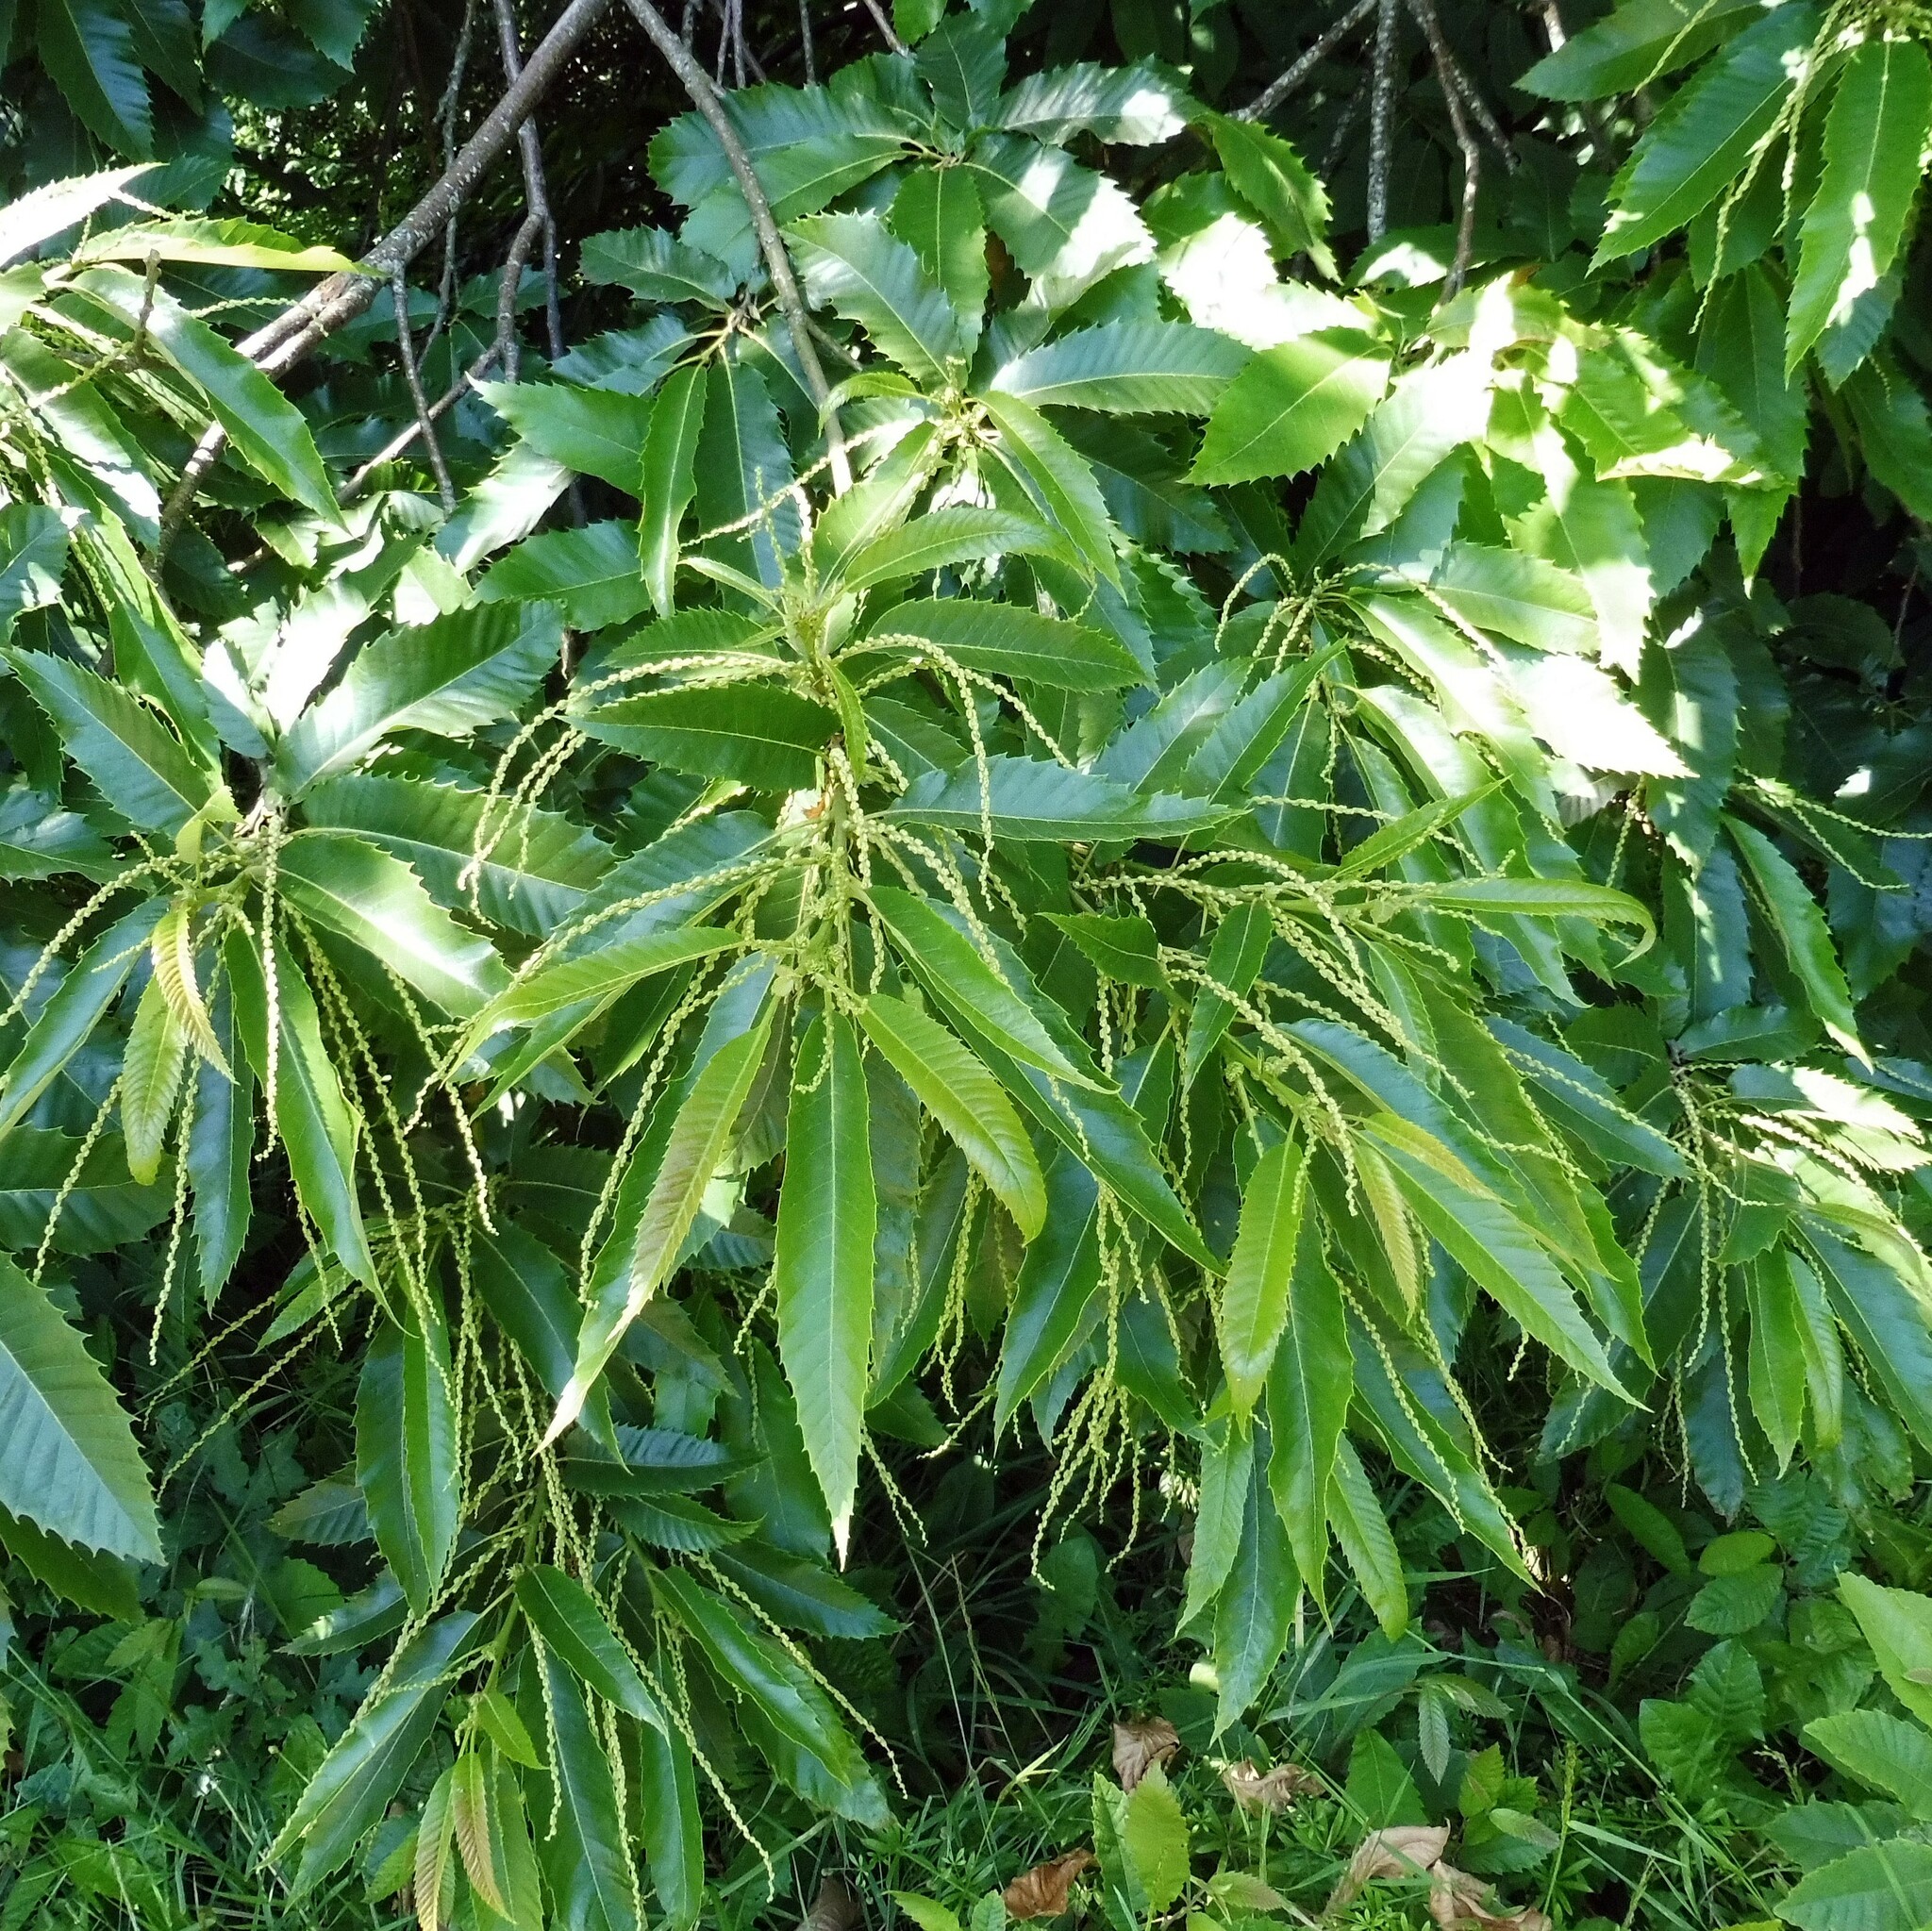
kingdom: Plantae
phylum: Tracheophyta
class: Magnoliopsida
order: Fagales
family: Fagaceae
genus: Castanea
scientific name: Castanea sativa
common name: Sweet chestnut
